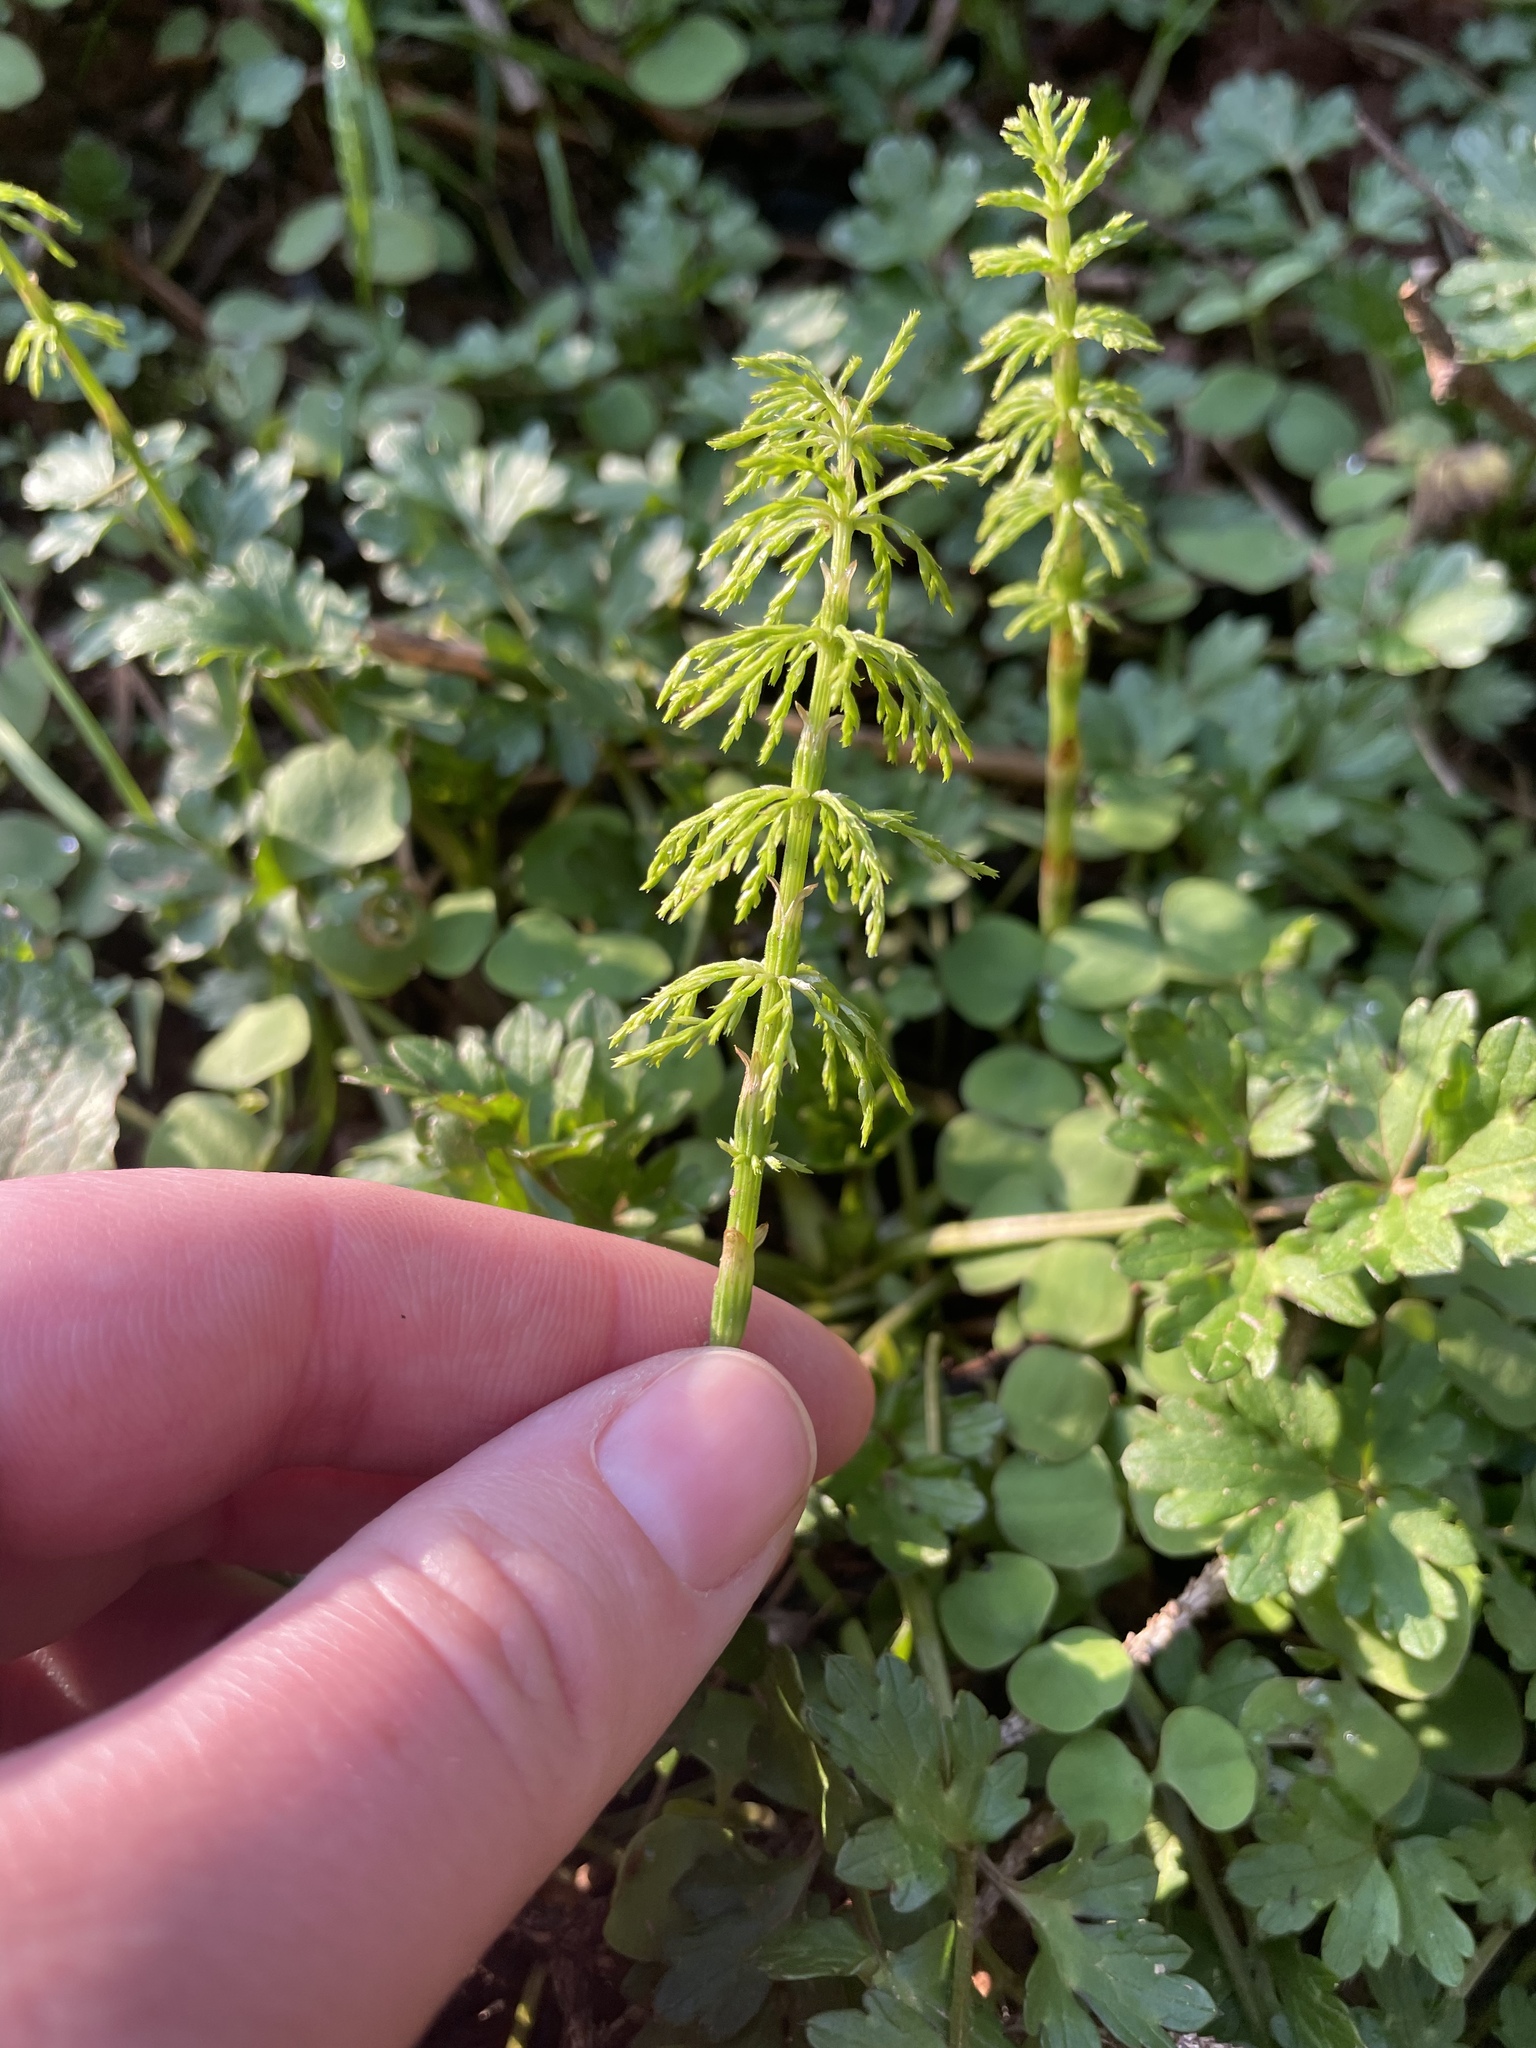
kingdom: Plantae
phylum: Tracheophyta
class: Polypodiopsida
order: Equisetales
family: Equisetaceae
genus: Equisetum
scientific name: Equisetum sylvaticum
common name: Wood horsetail
